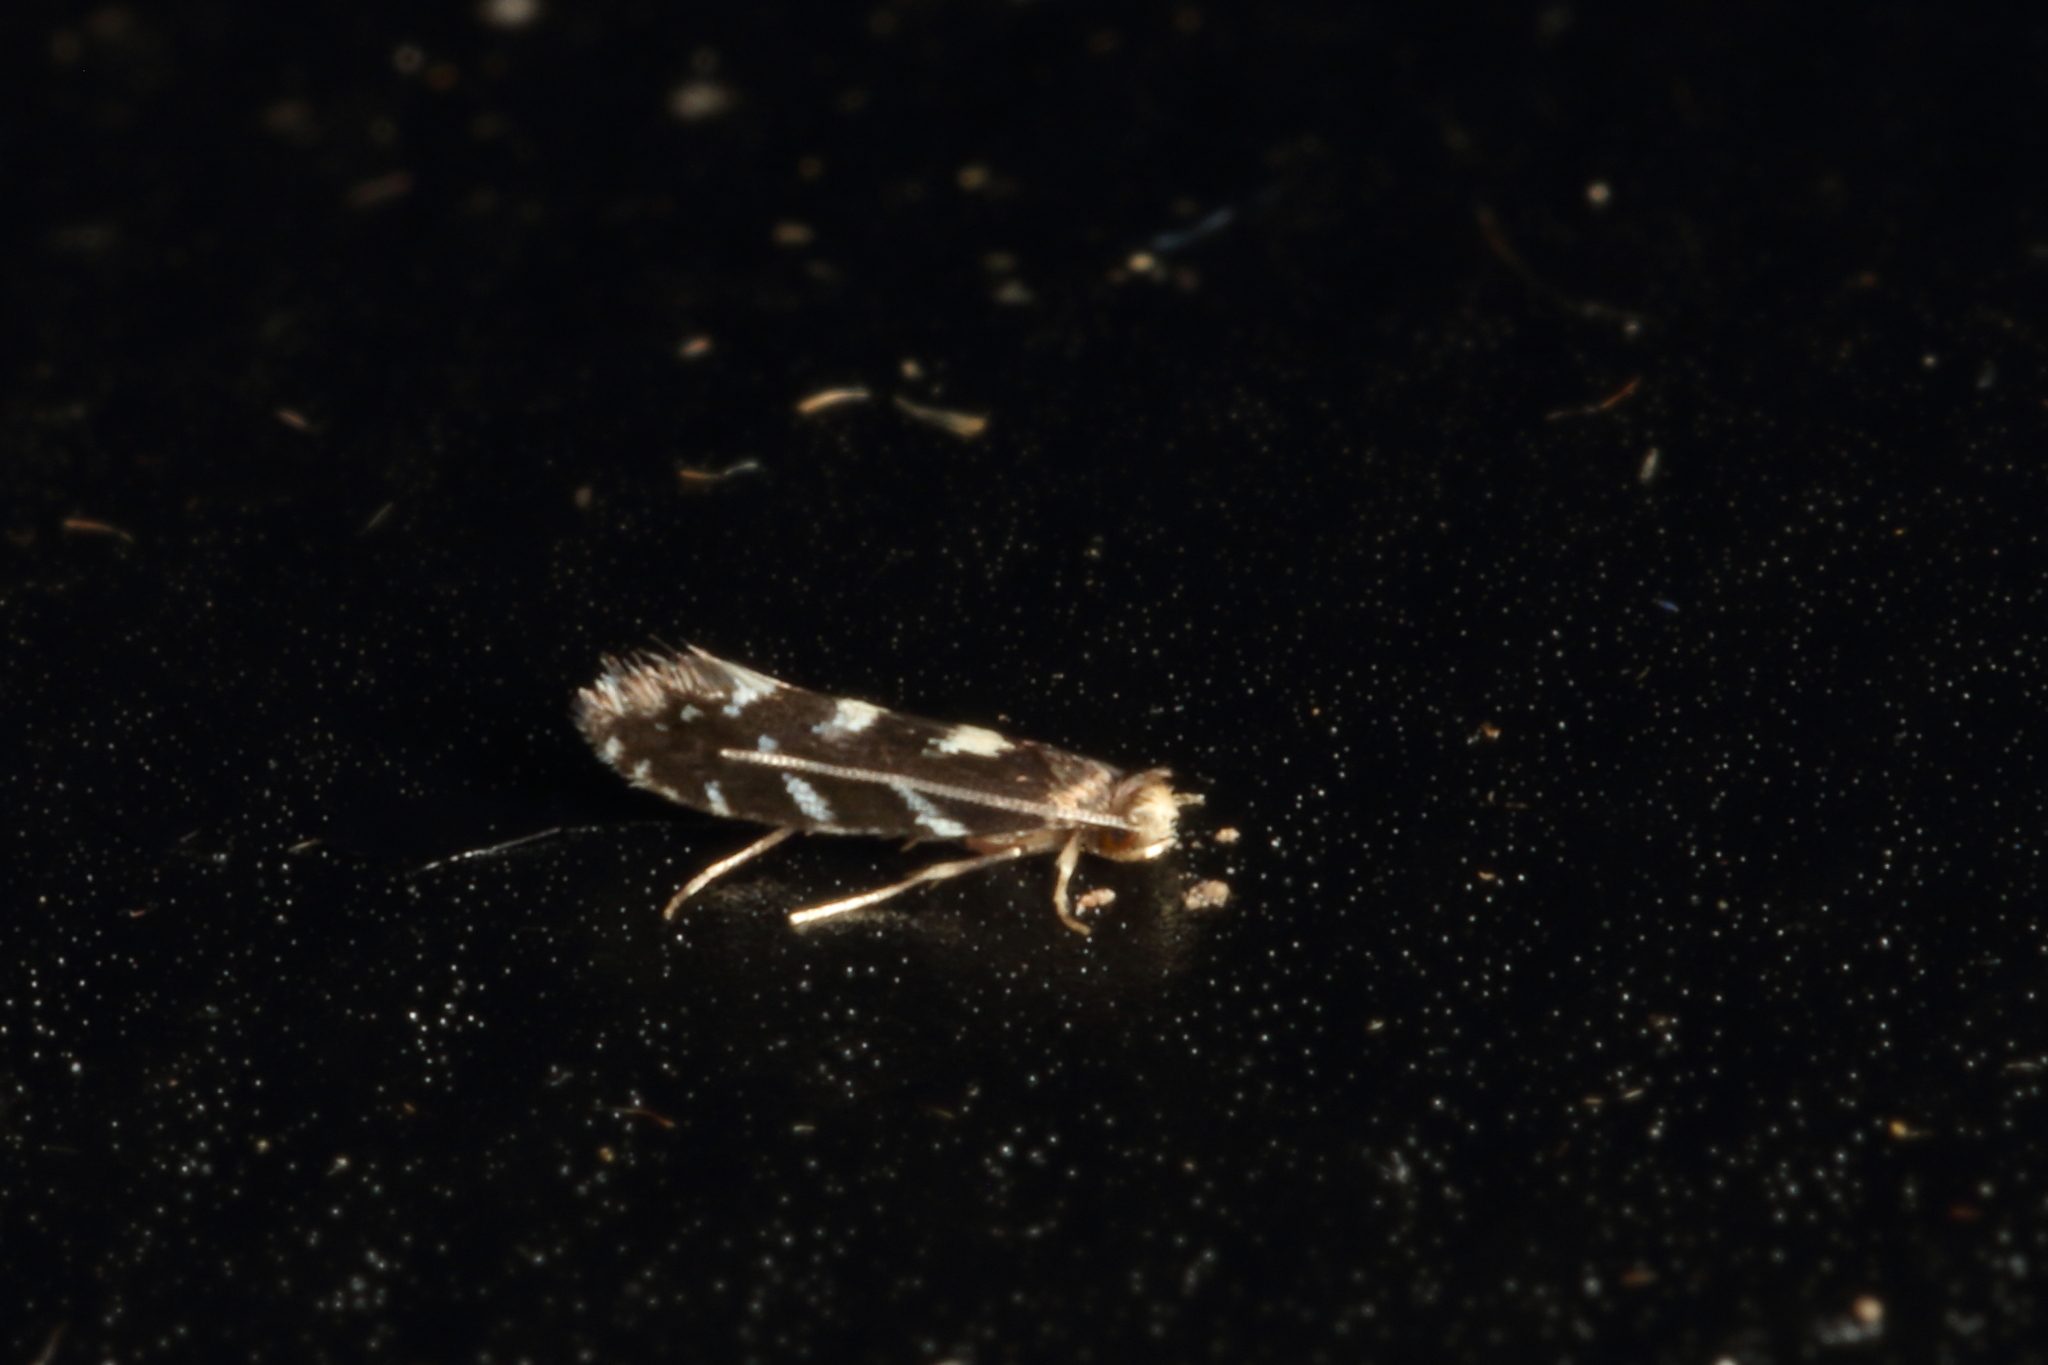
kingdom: Animalia
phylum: Arthropoda
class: Insecta
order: Lepidoptera
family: Tineidae
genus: Tinea
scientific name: Tinea margaritis
